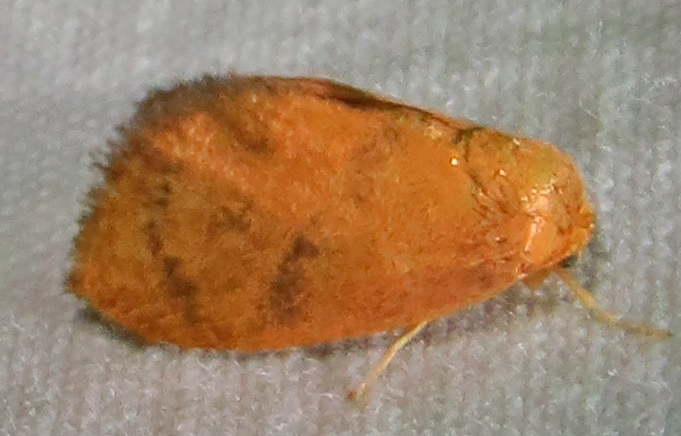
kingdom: Animalia
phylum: Arthropoda
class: Insecta
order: Lepidoptera
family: Limacodidae
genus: Heterogenea
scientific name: Heterogenea shurtleffi
